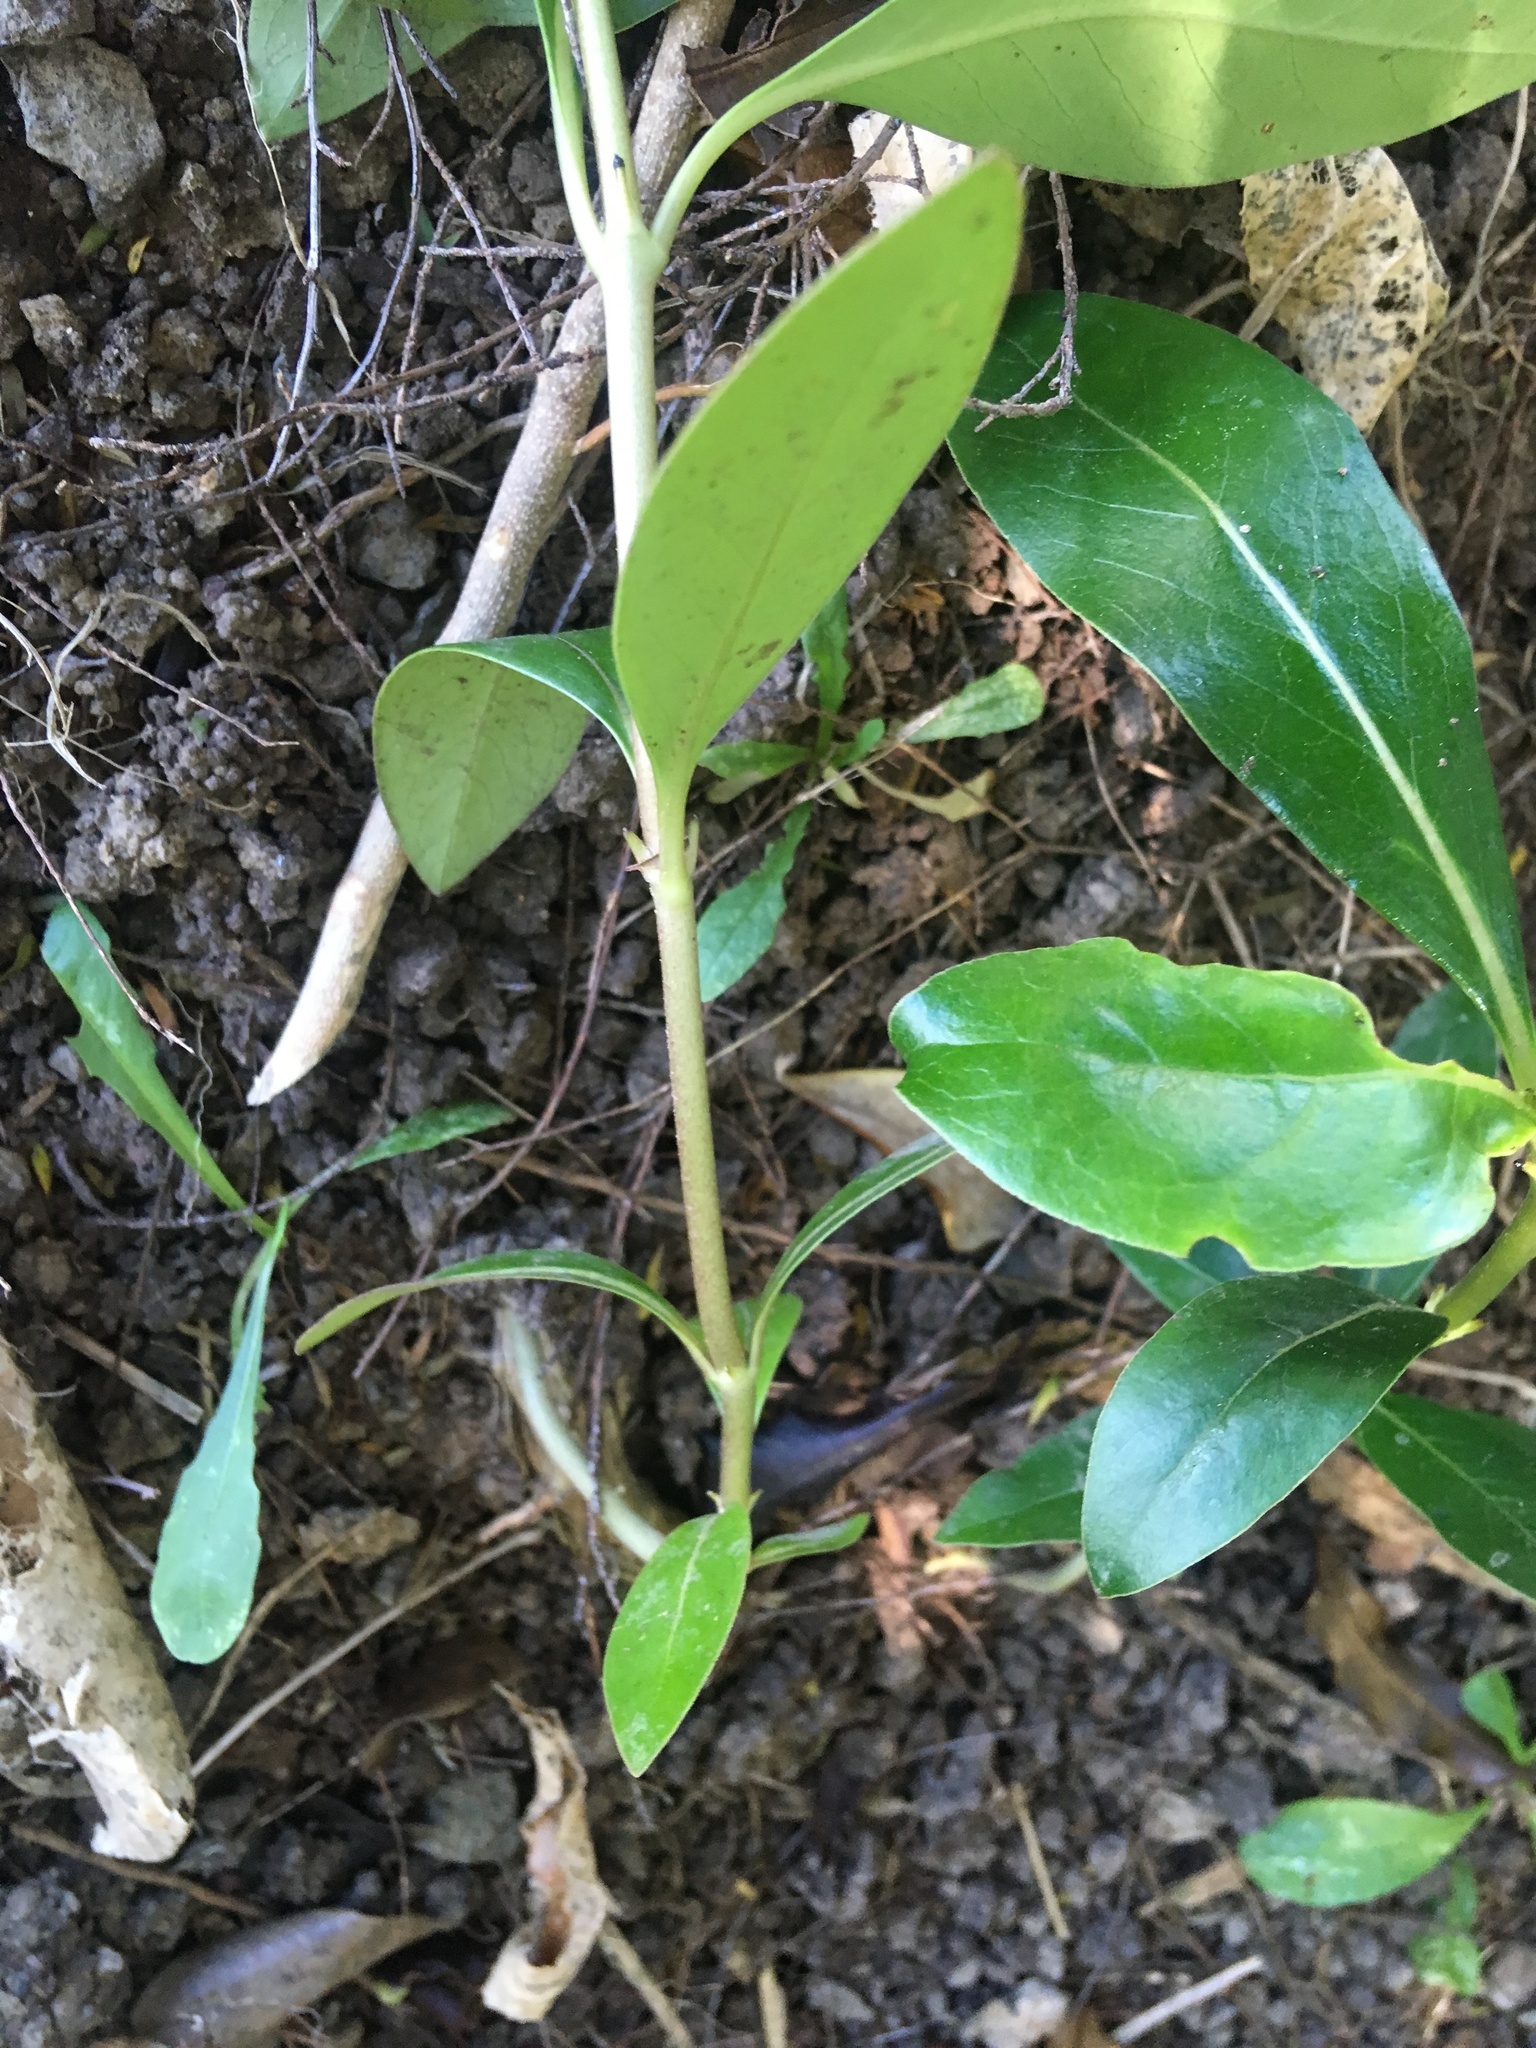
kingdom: Plantae
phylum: Tracheophyta
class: Magnoliopsida
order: Gentianales
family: Rubiaceae
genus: Coprosma
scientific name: Coprosma robusta
